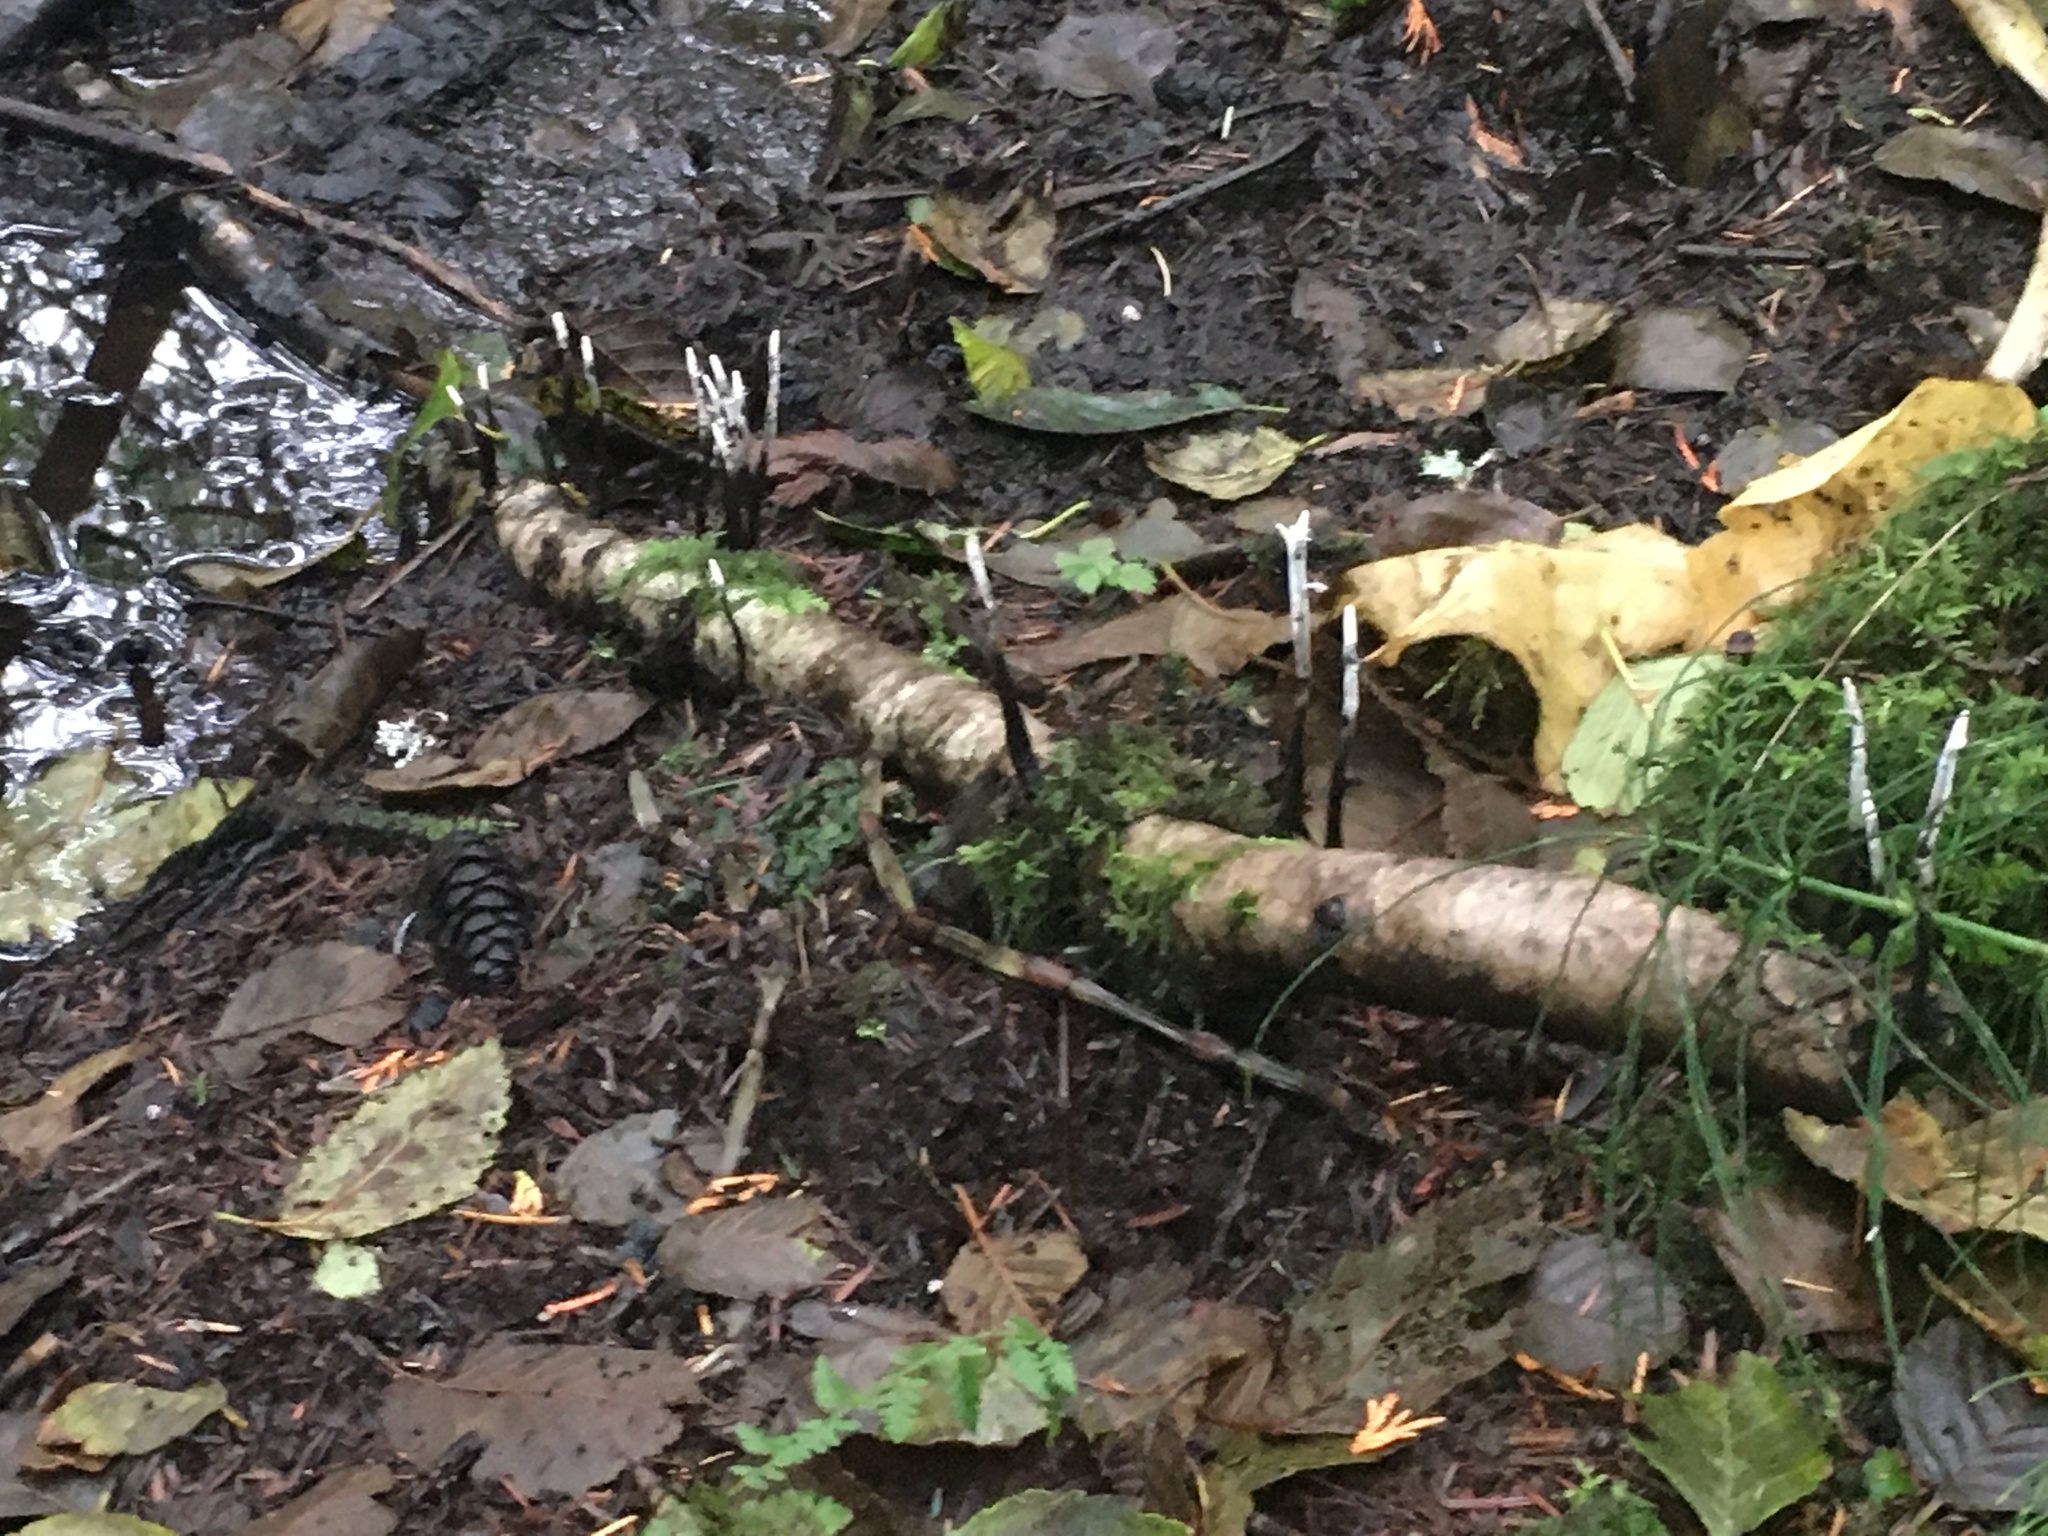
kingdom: Fungi
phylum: Ascomycota
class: Sordariomycetes
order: Xylariales
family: Xylariaceae
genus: Xylaria
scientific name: Xylaria hypoxylon
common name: Candle-snuff fungus
